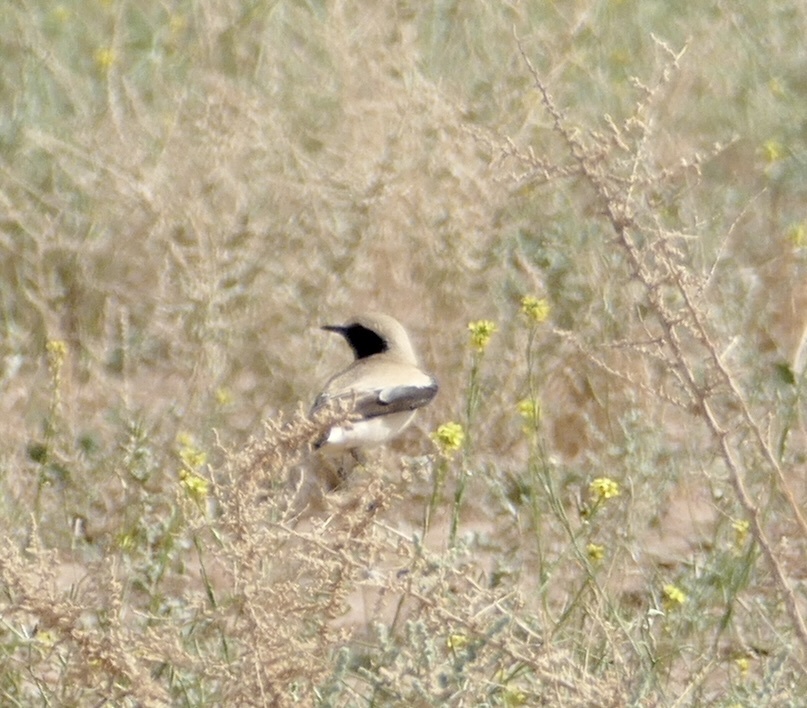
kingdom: Animalia
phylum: Chordata
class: Aves
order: Passeriformes
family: Muscicapidae
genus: Oenanthe
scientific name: Oenanthe deserti
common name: Desert wheatear
